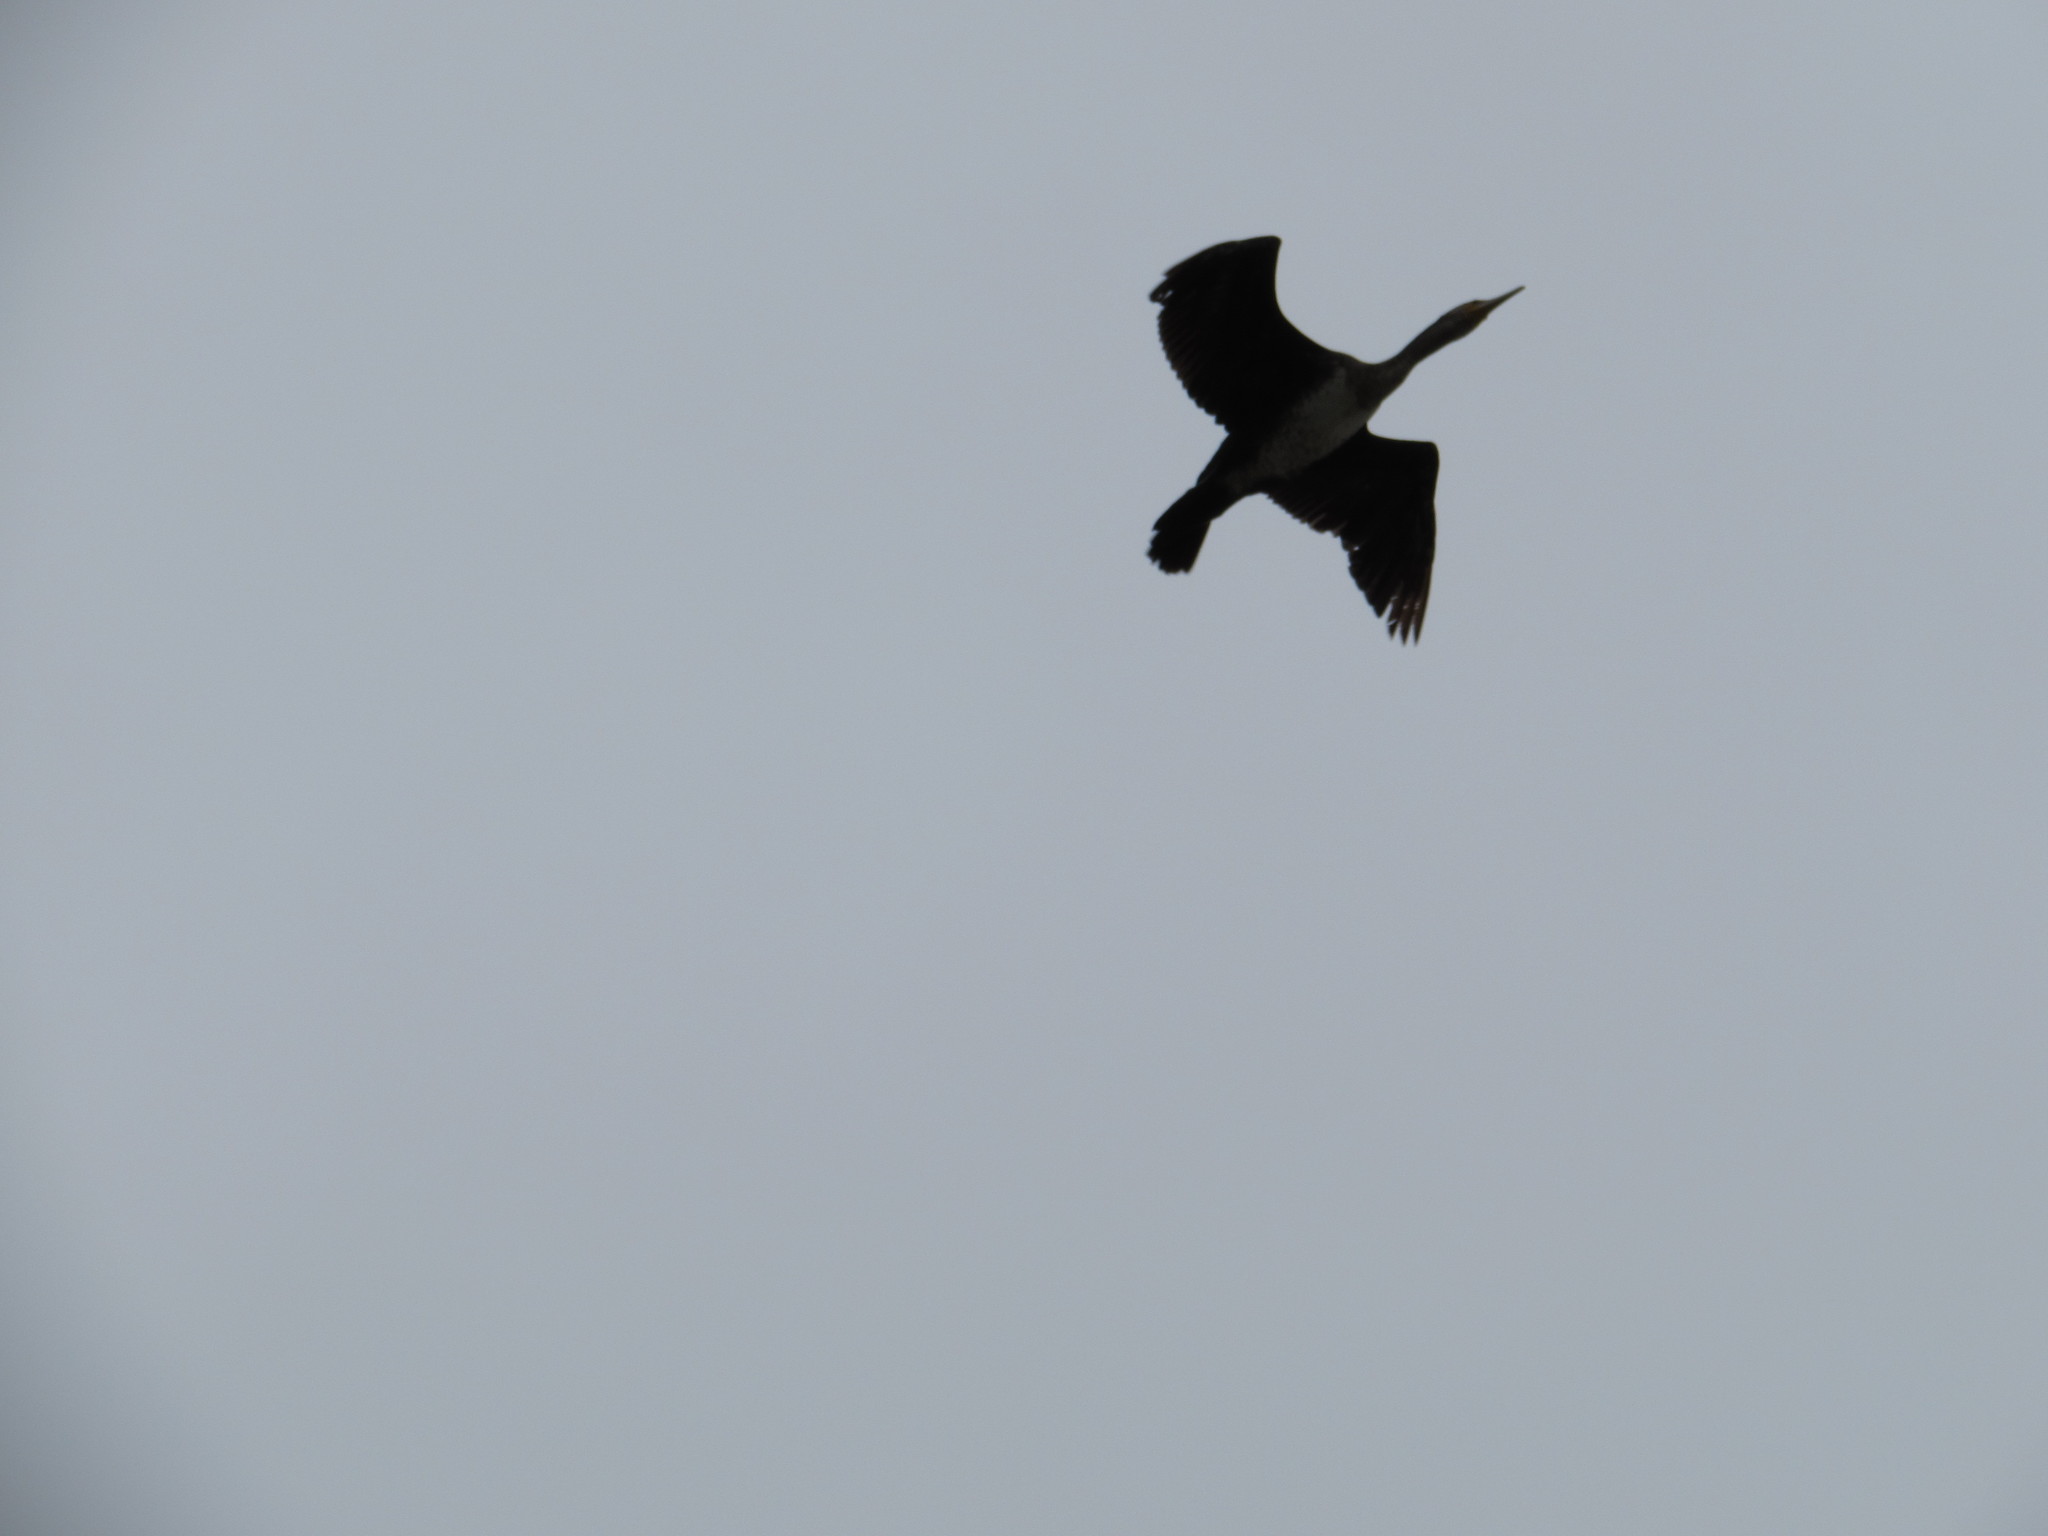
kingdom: Animalia
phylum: Chordata
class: Aves
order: Suliformes
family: Phalacrocoracidae
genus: Phalacrocorax
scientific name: Phalacrocorax carbo
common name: Great cormorant
